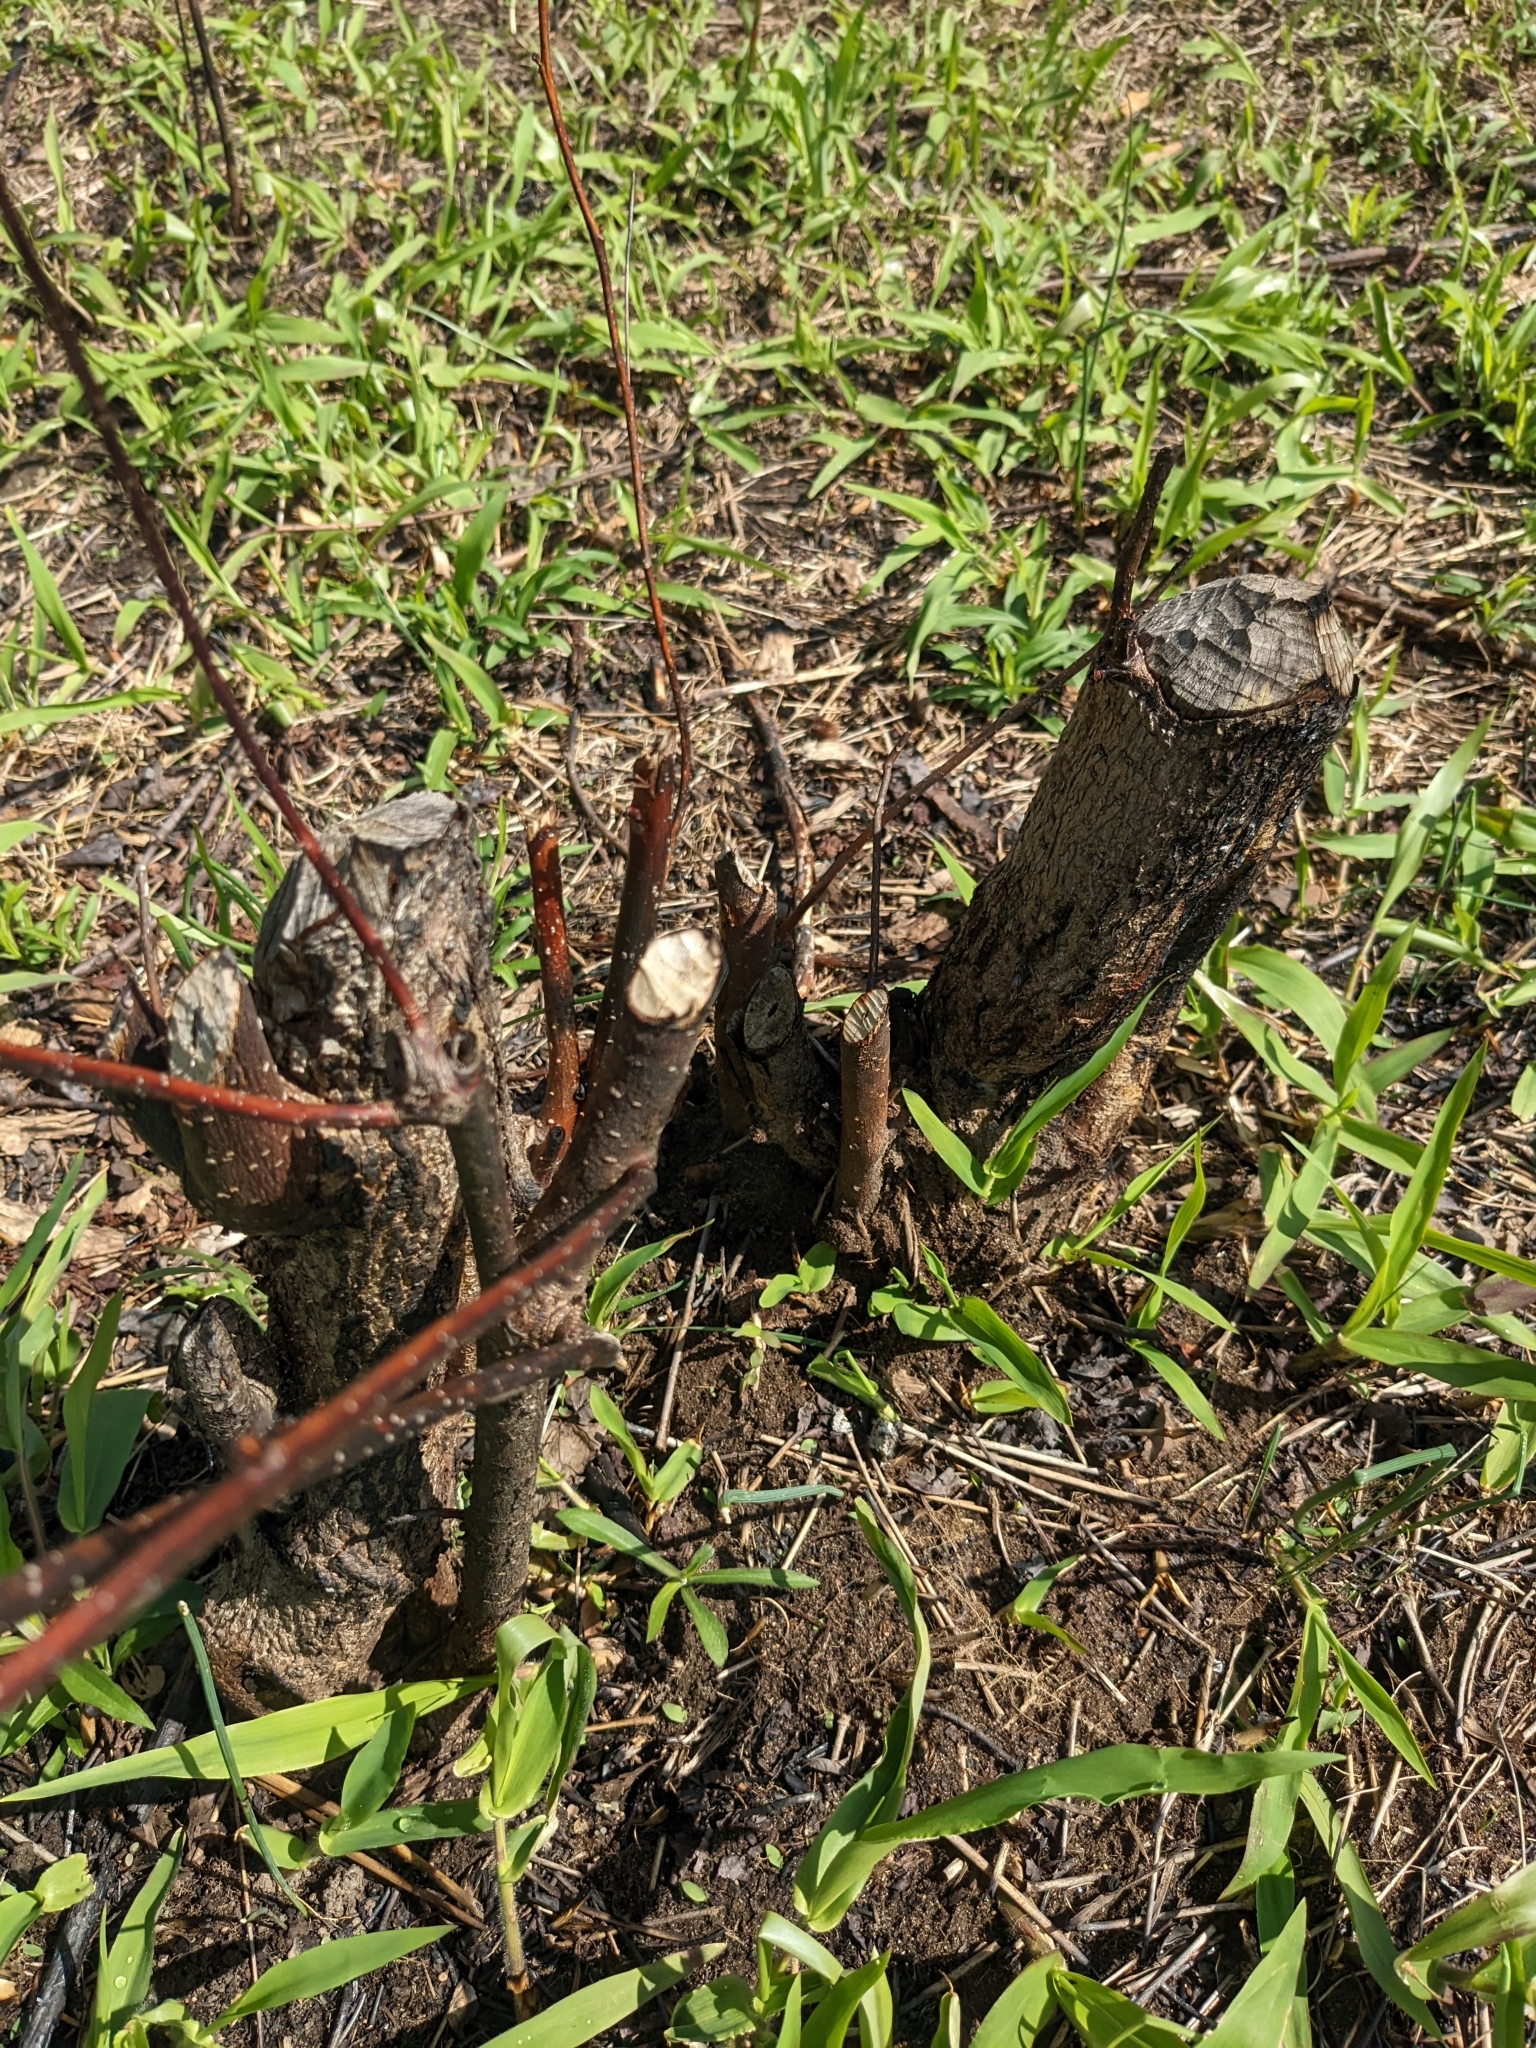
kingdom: Animalia
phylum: Chordata
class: Mammalia
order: Rodentia
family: Castoridae
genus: Castor
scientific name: Castor canadensis
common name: American beaver
